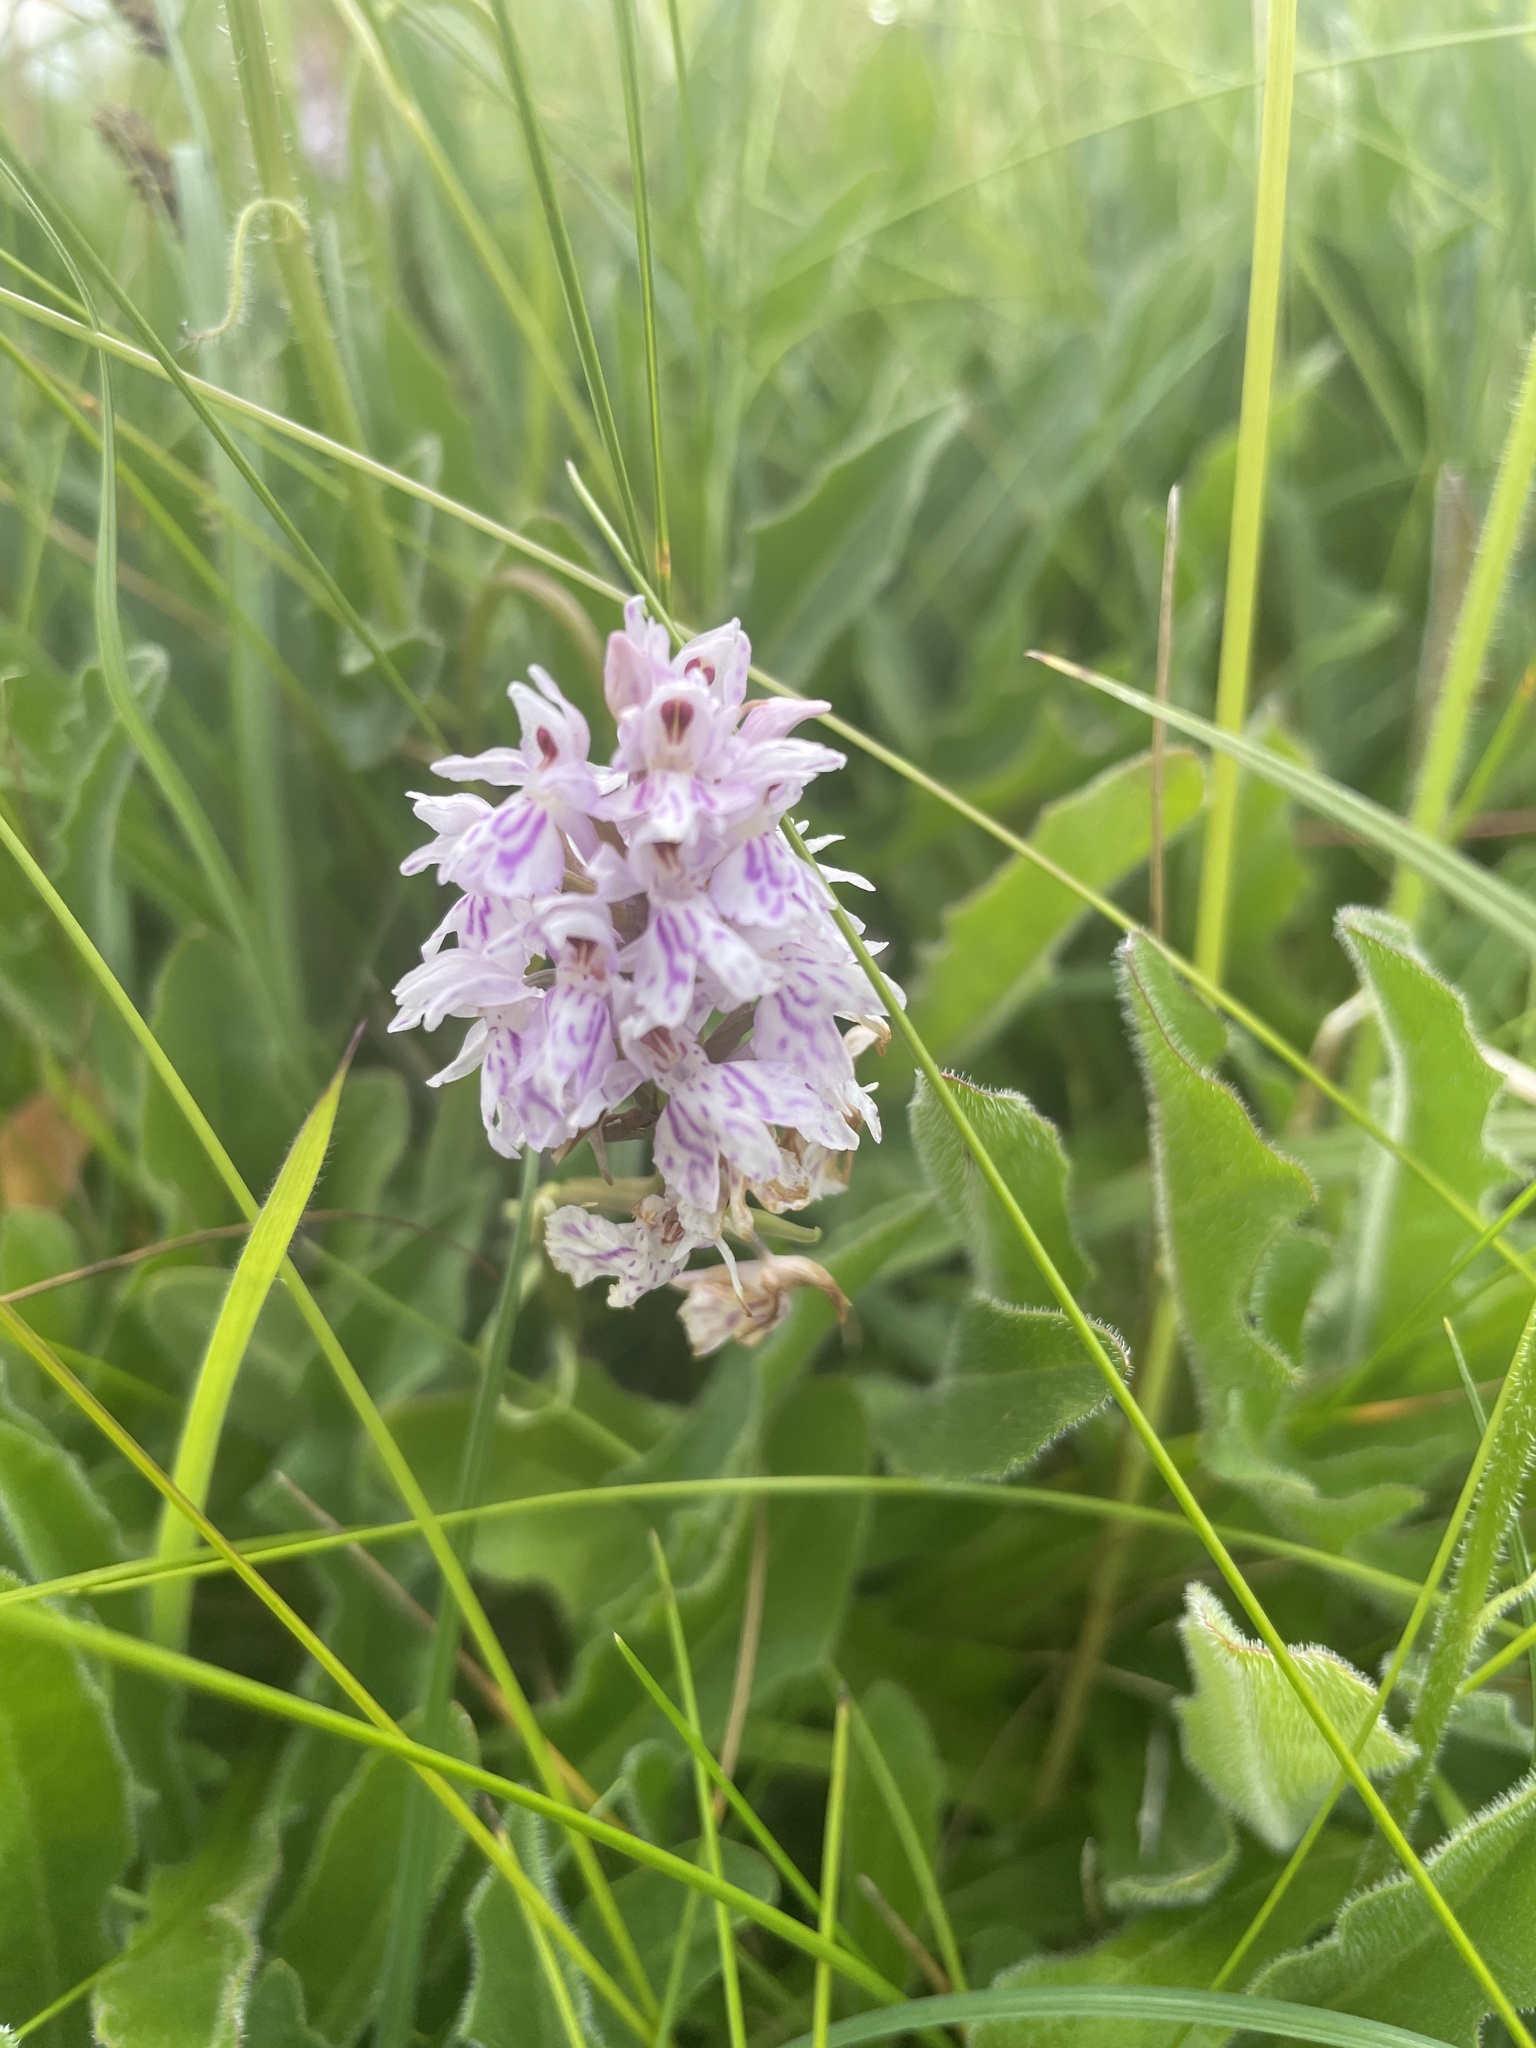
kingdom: Plantae
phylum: Tracheophyta
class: Liliopsida
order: Asparagales
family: Orchidaceae
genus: Dactylorhiza
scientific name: Dactylorhiza maculata
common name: Heath spotted-orchid
